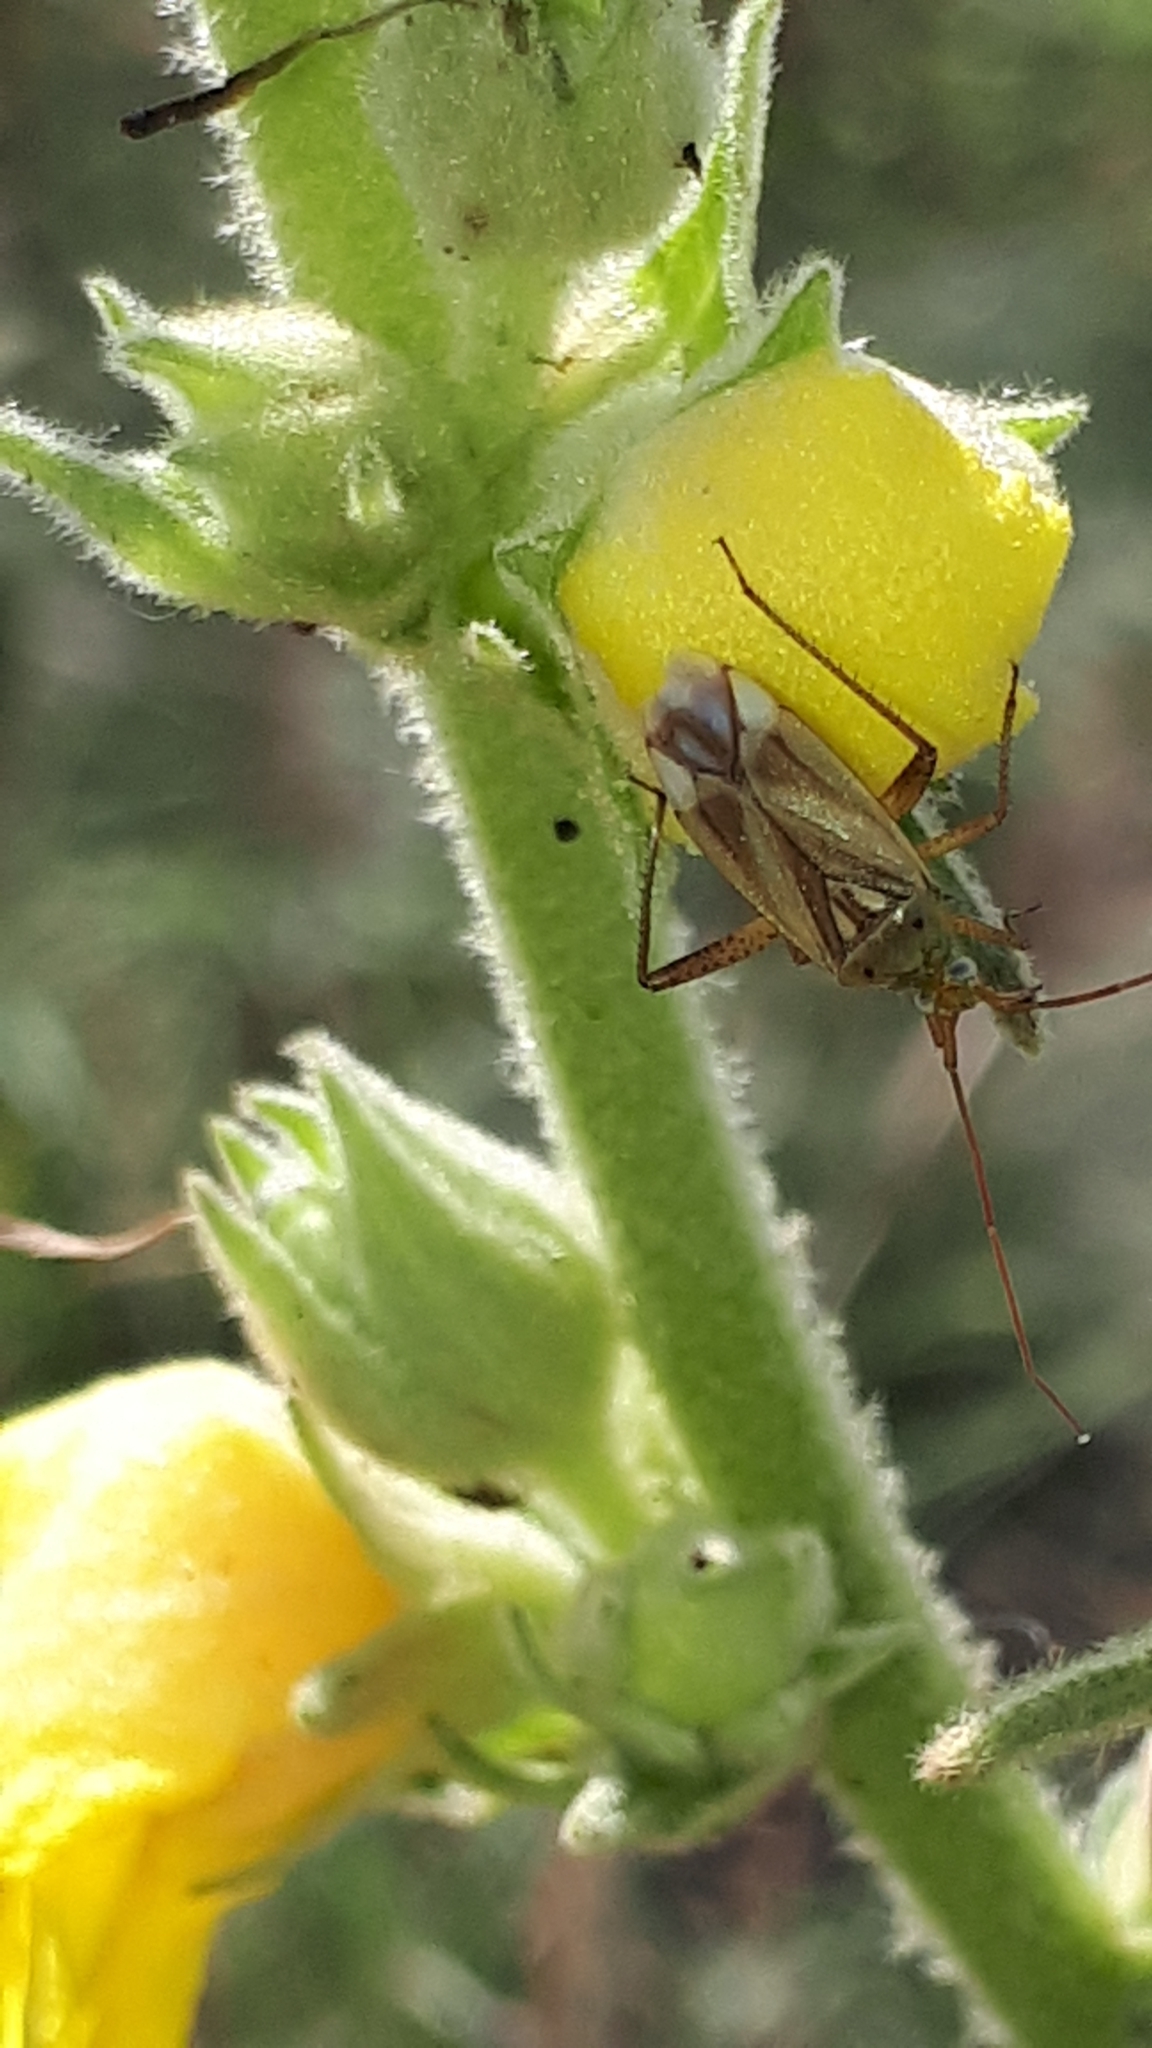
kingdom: Animalia
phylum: Arthropoda
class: Insecta
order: Hemiptera
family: Miridae
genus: Adelphocoris
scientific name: Adelphocoris lineolatus
